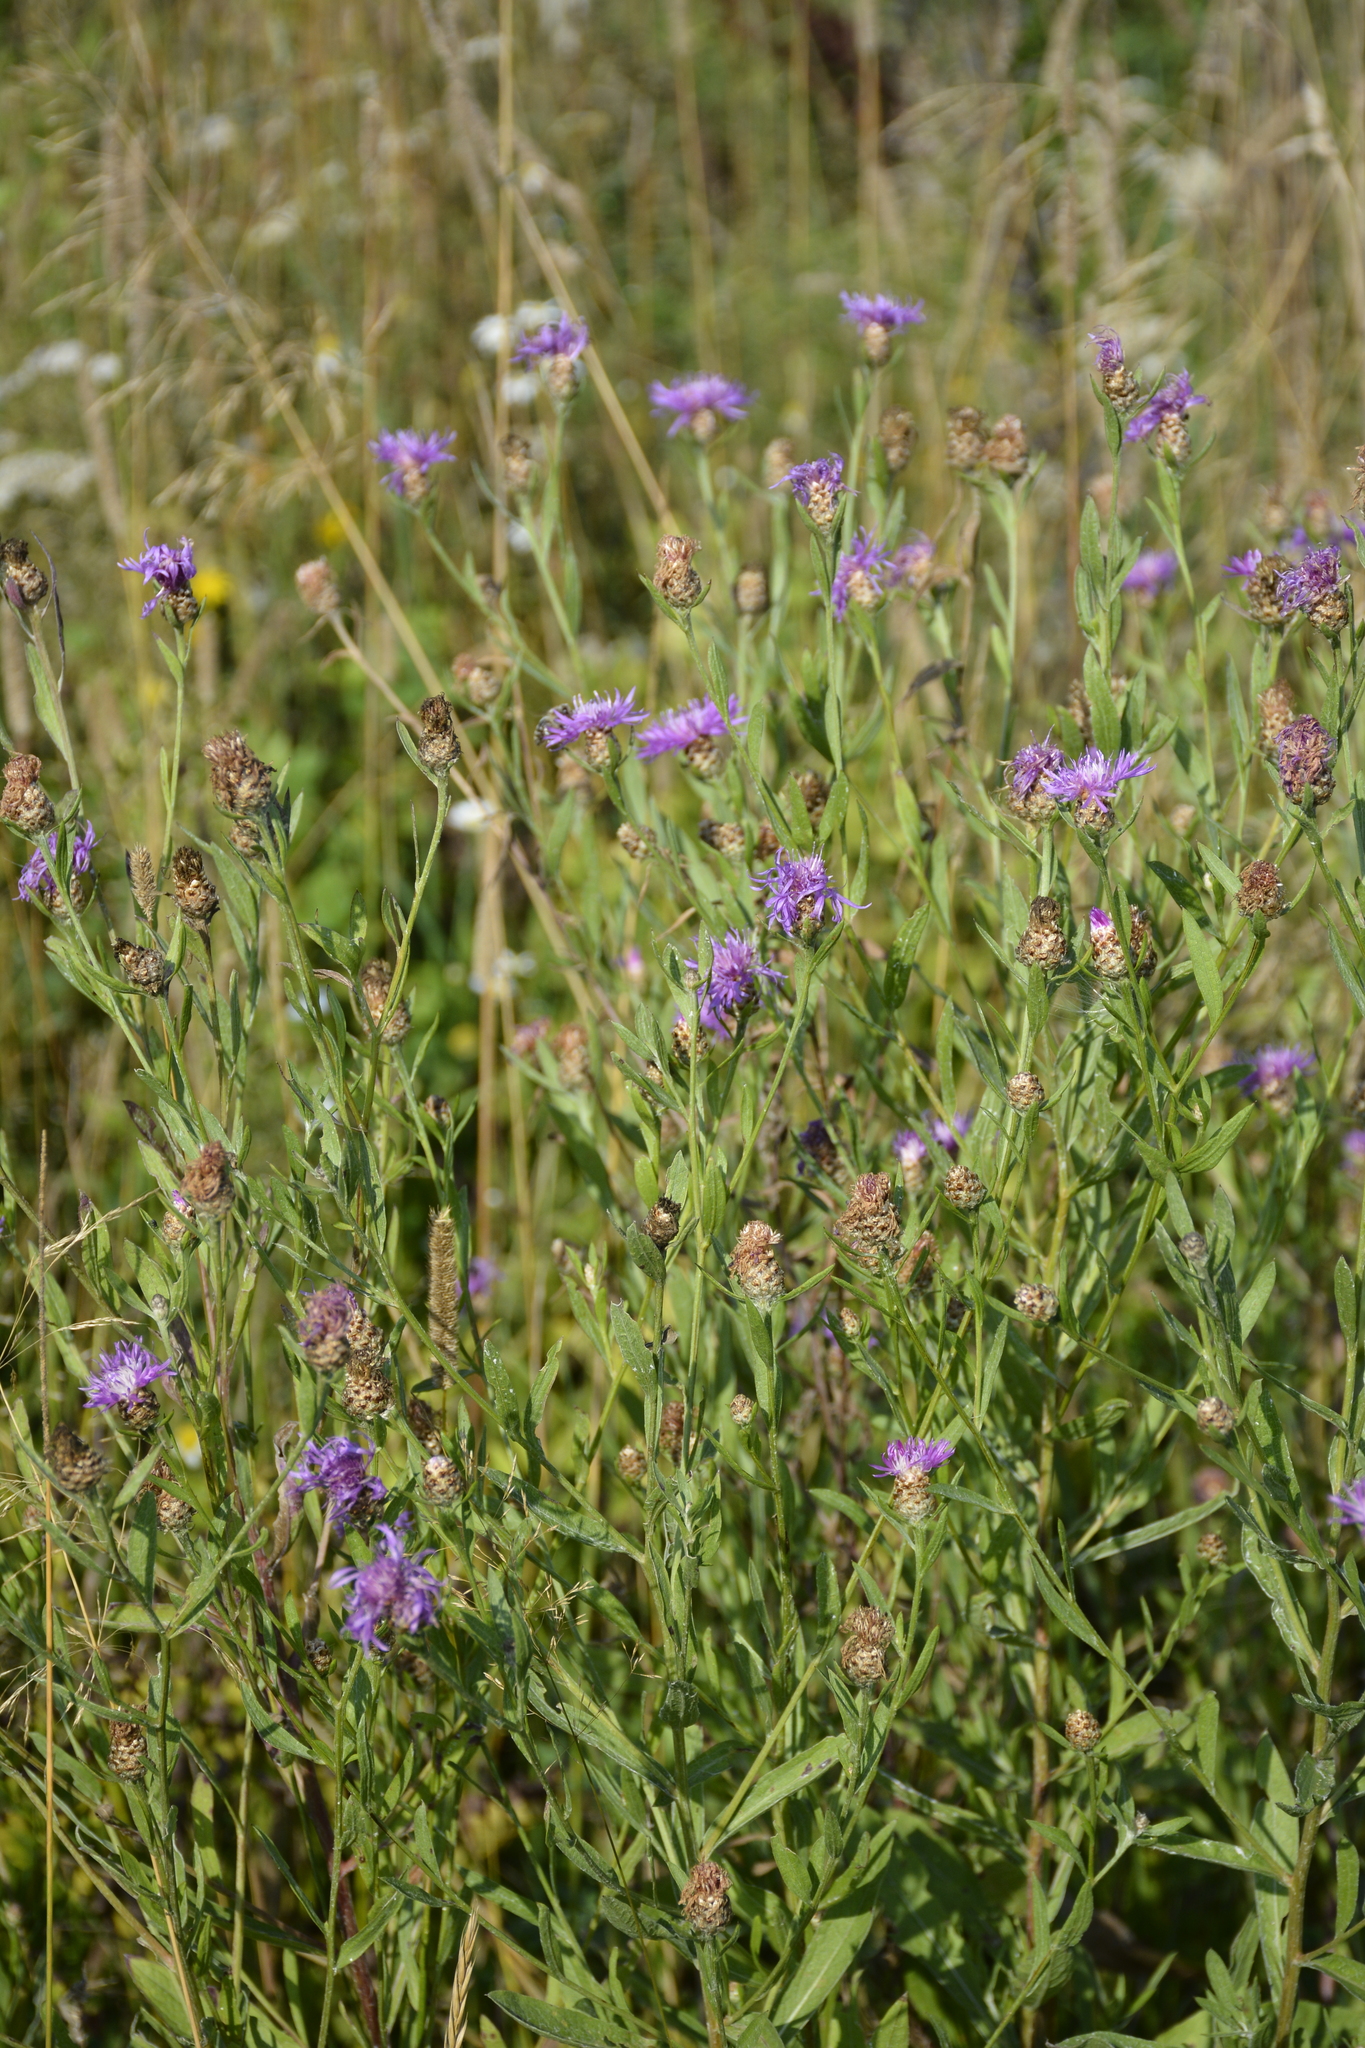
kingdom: Plantae
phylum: Tracheophyta
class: Magnoliopsida
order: Asterales
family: Asteraceae
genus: Centaurea
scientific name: Centaurea jacea
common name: Brown knapweed
